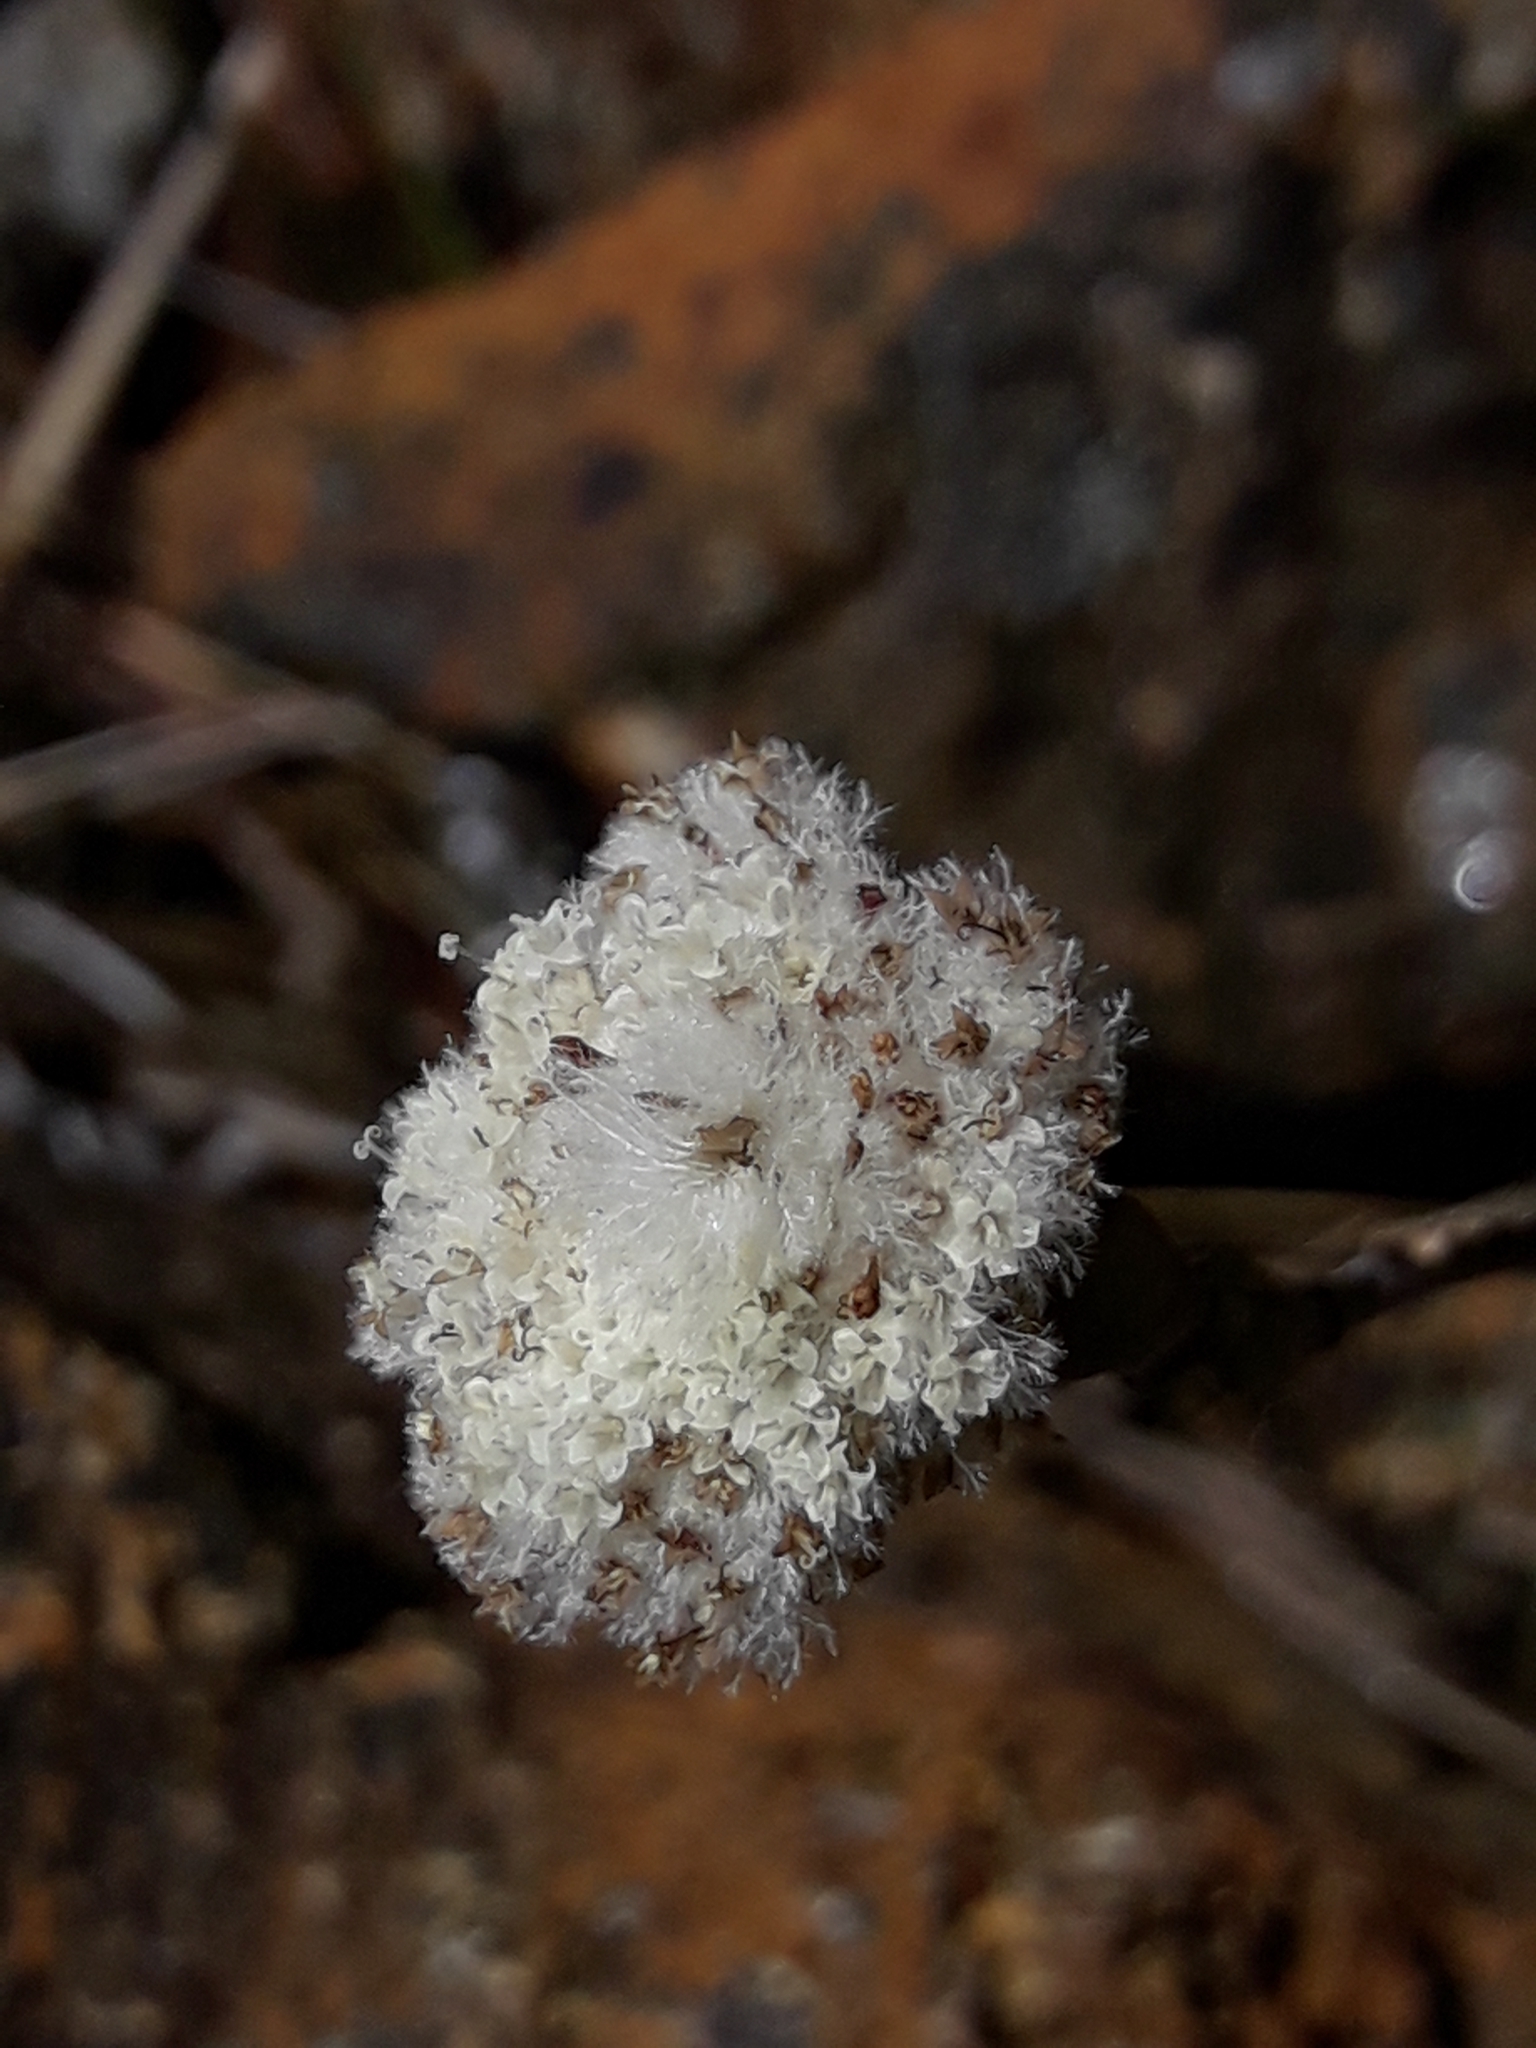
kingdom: Plantae
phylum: Tracheophyta
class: Magnoliopsida
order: Asterales
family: Asteraceae
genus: Craspedia
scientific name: Craspedia uniflora
